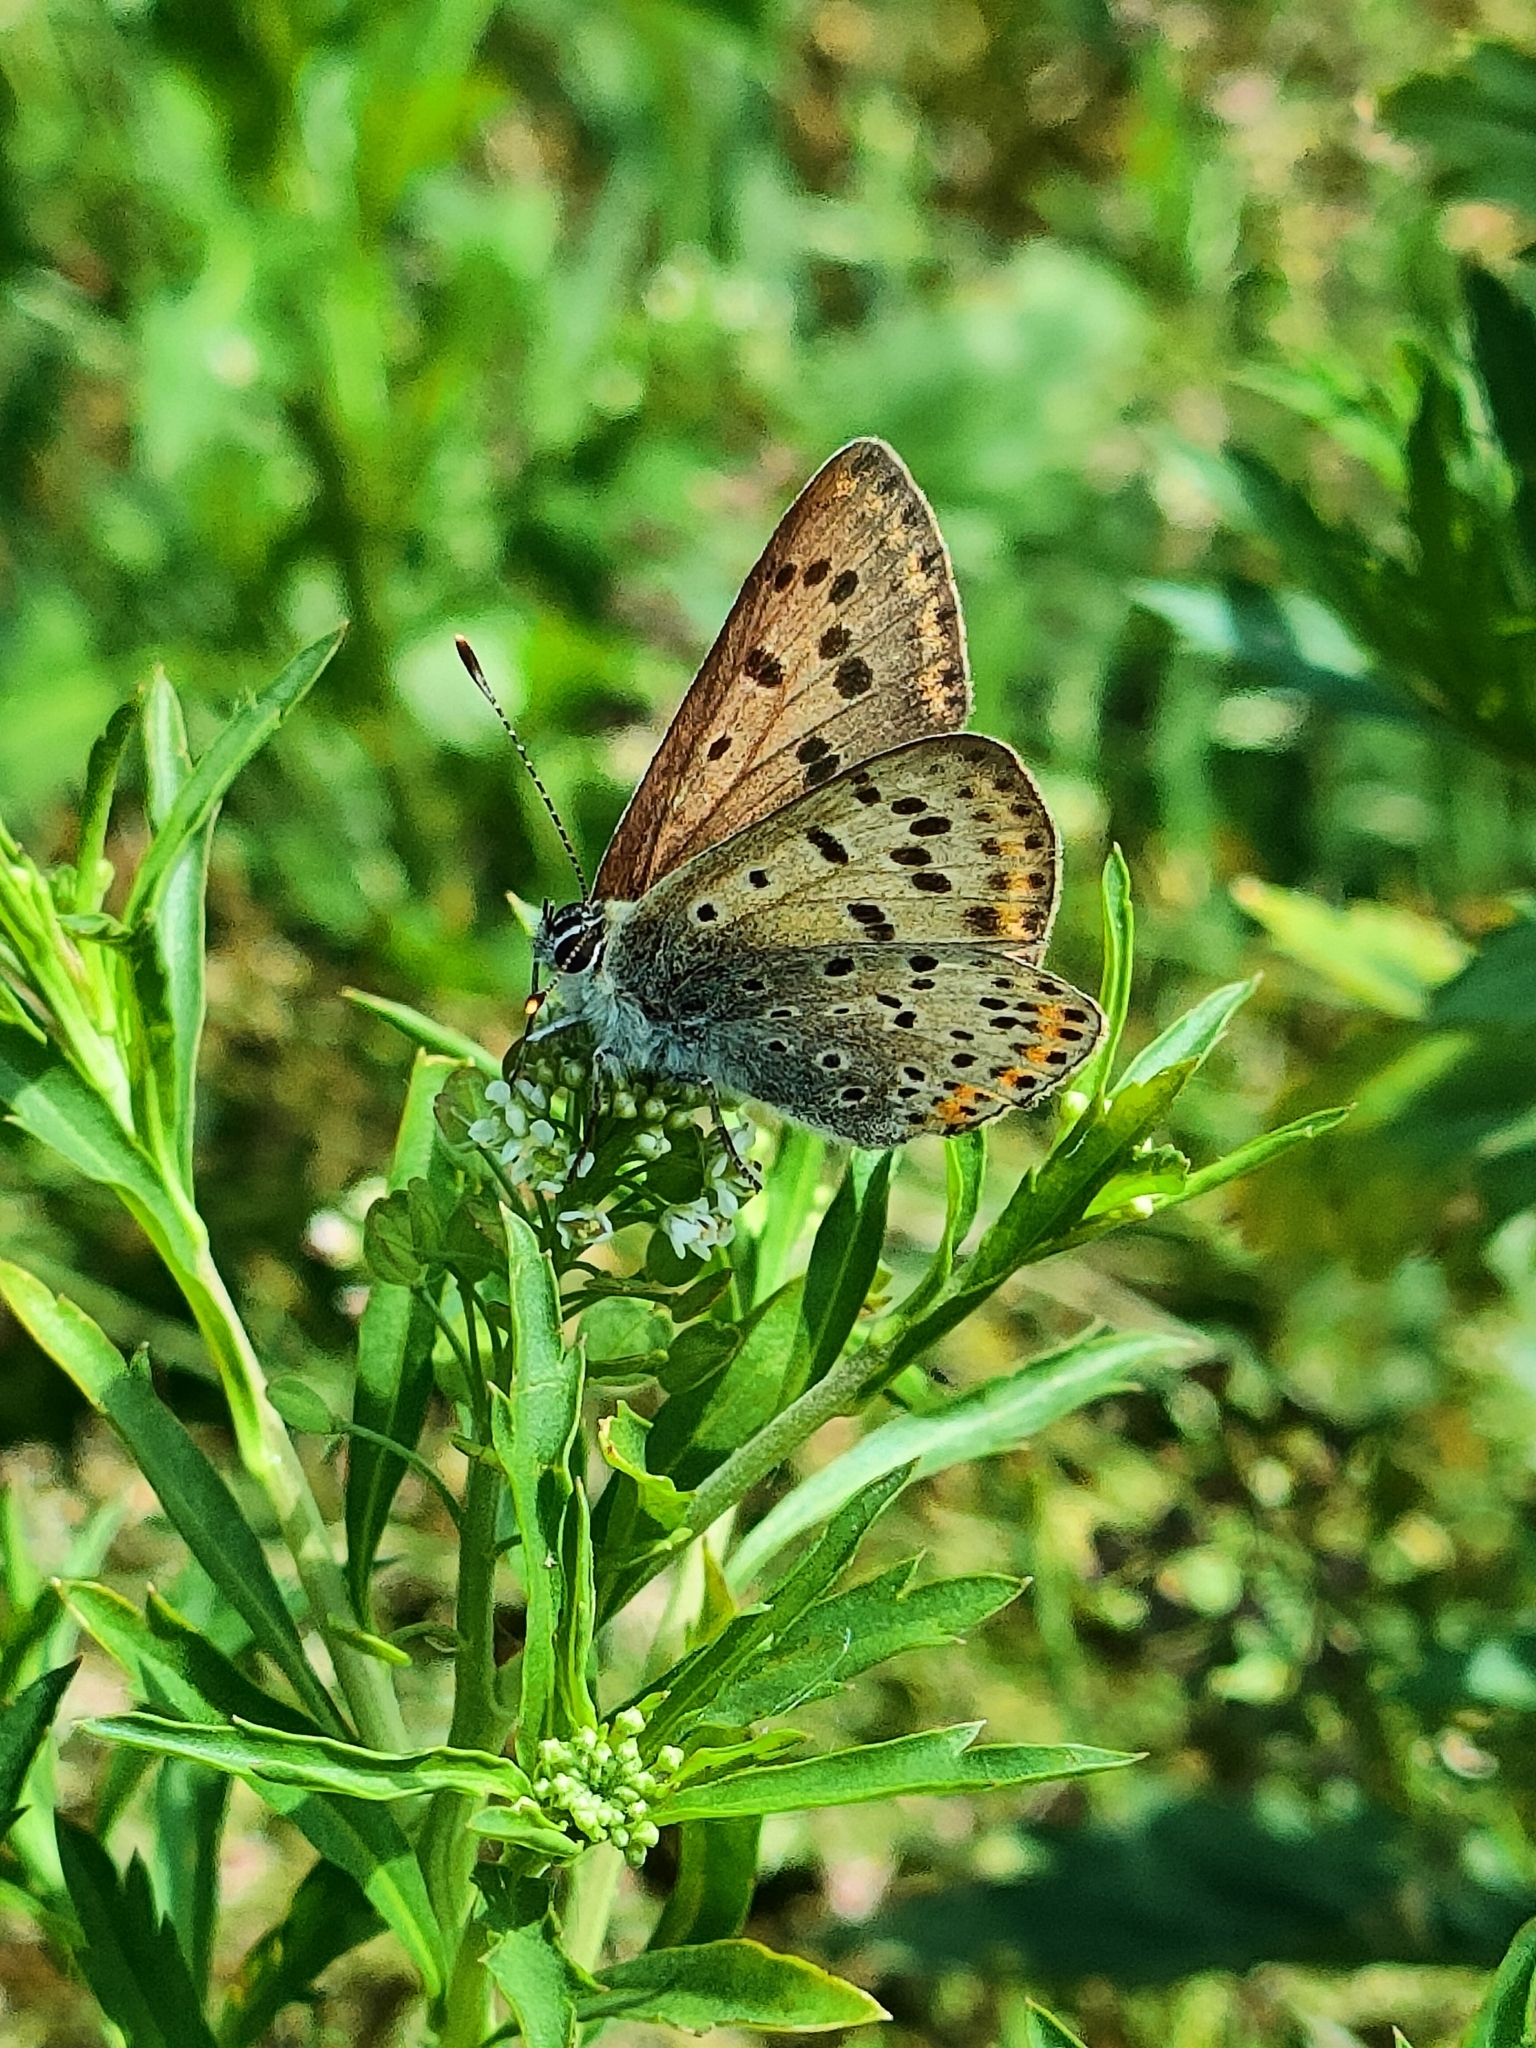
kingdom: Animalia
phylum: Arthropoda
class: Insecta
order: Lepidoptera
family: Lycaenidae
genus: Loweia
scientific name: Loweia tityrus
